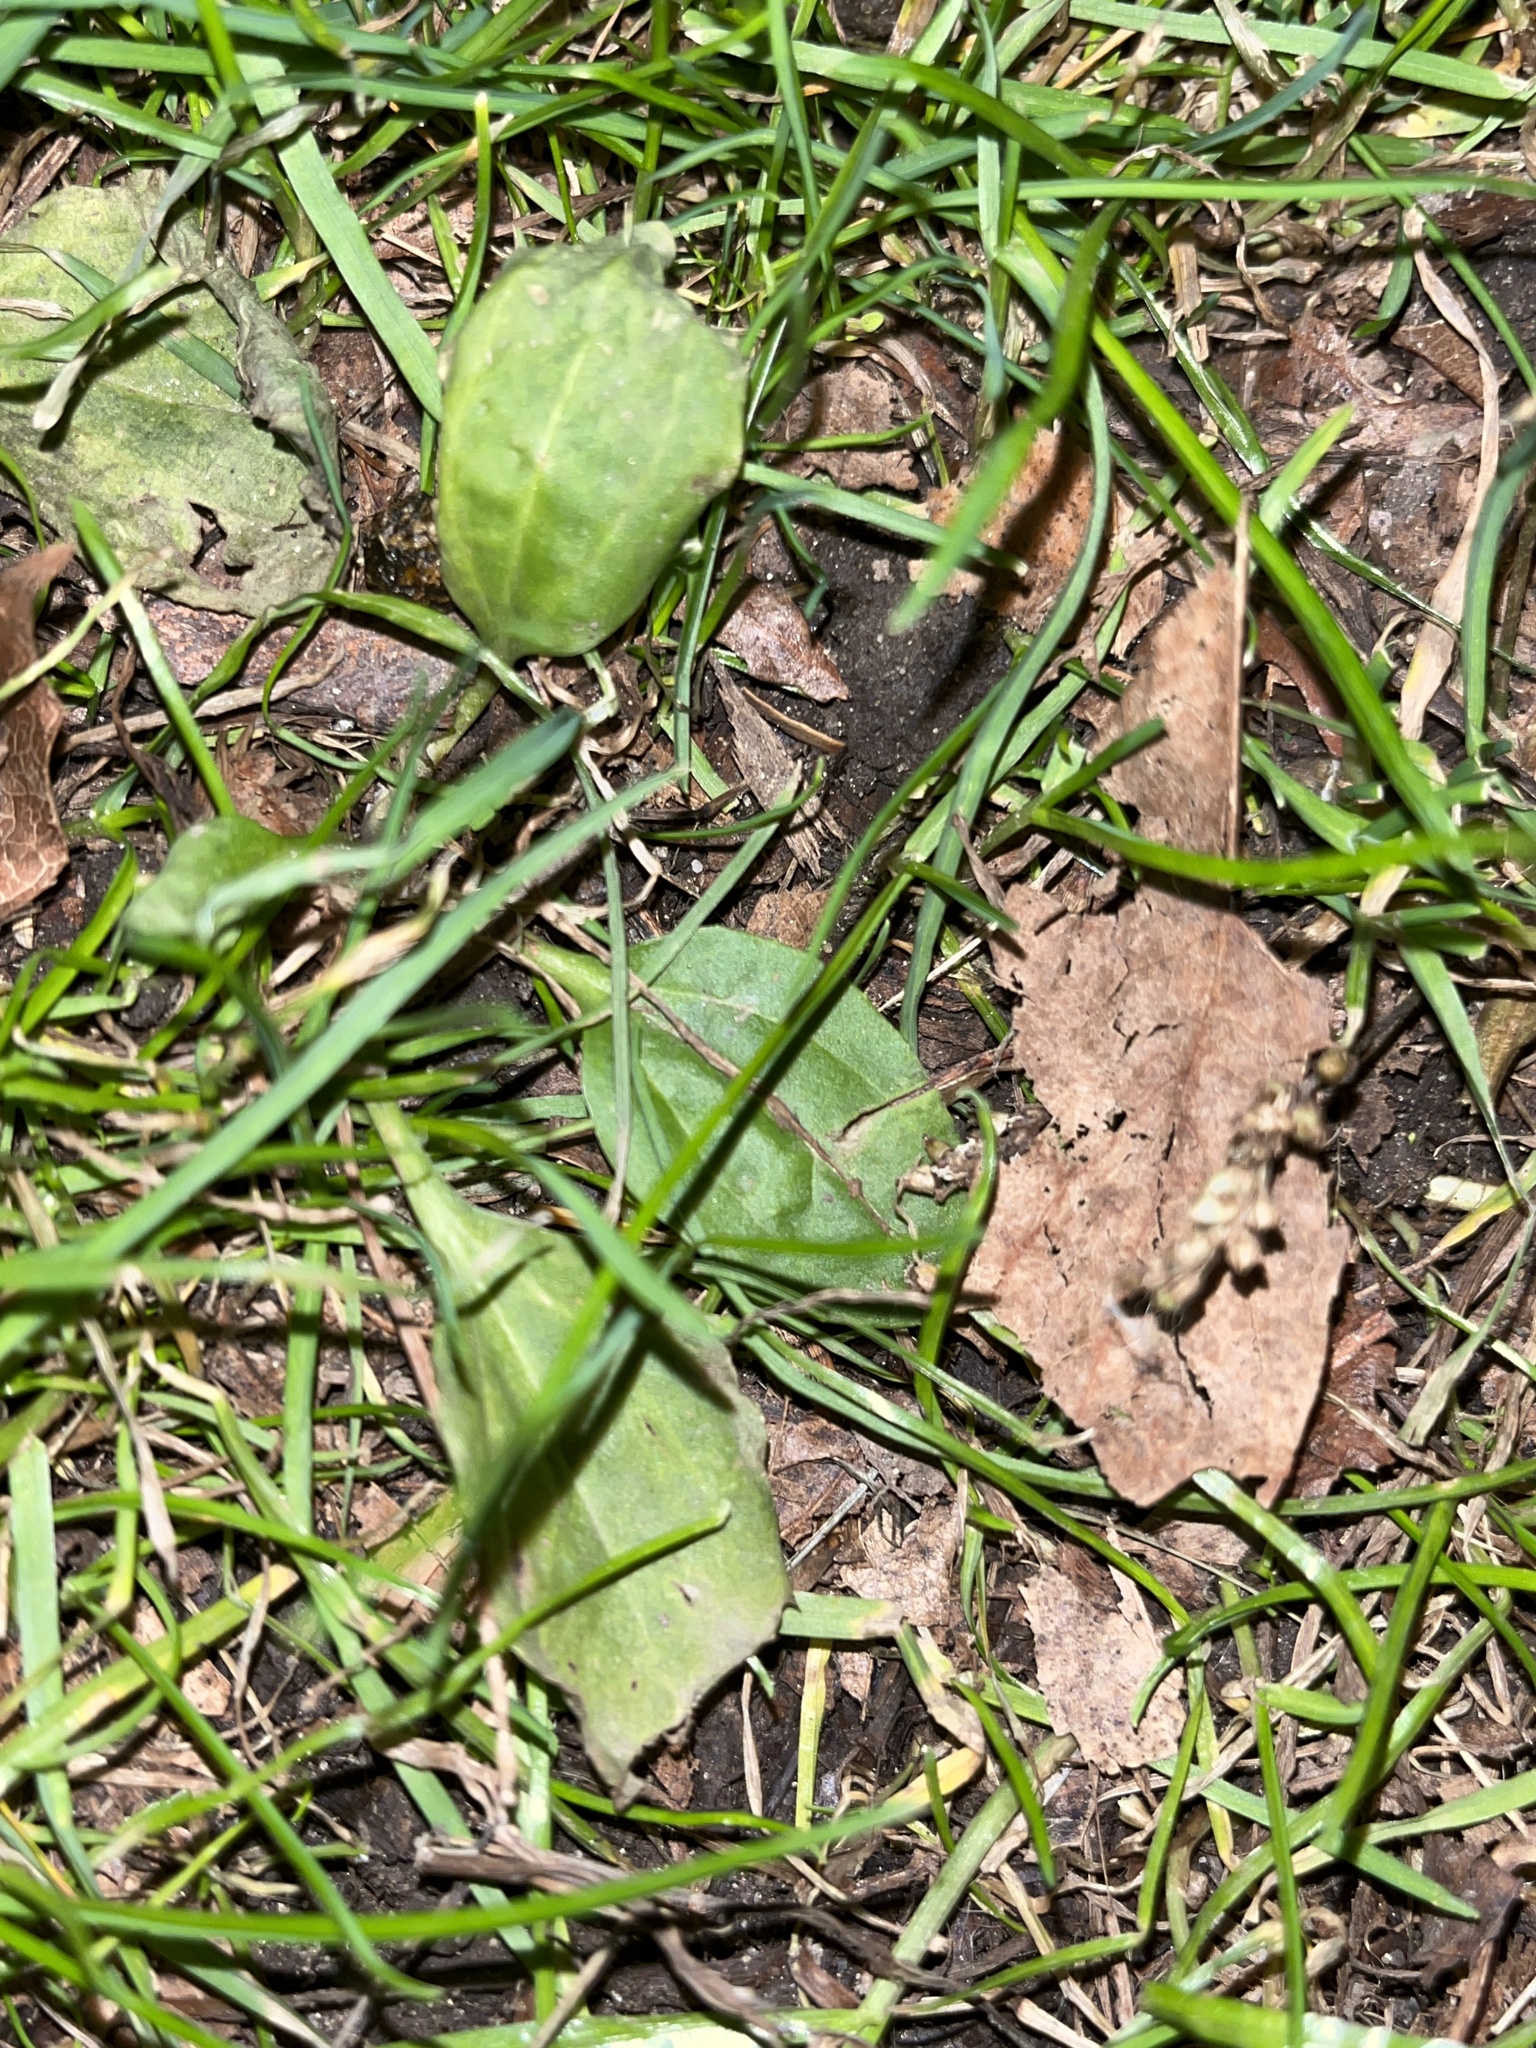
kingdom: Plantae
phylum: Tracheophyta
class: Magnoliopsida
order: Lamiales
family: Plantaginaceae
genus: Plantago
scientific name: Plantago major
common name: Common plantain
